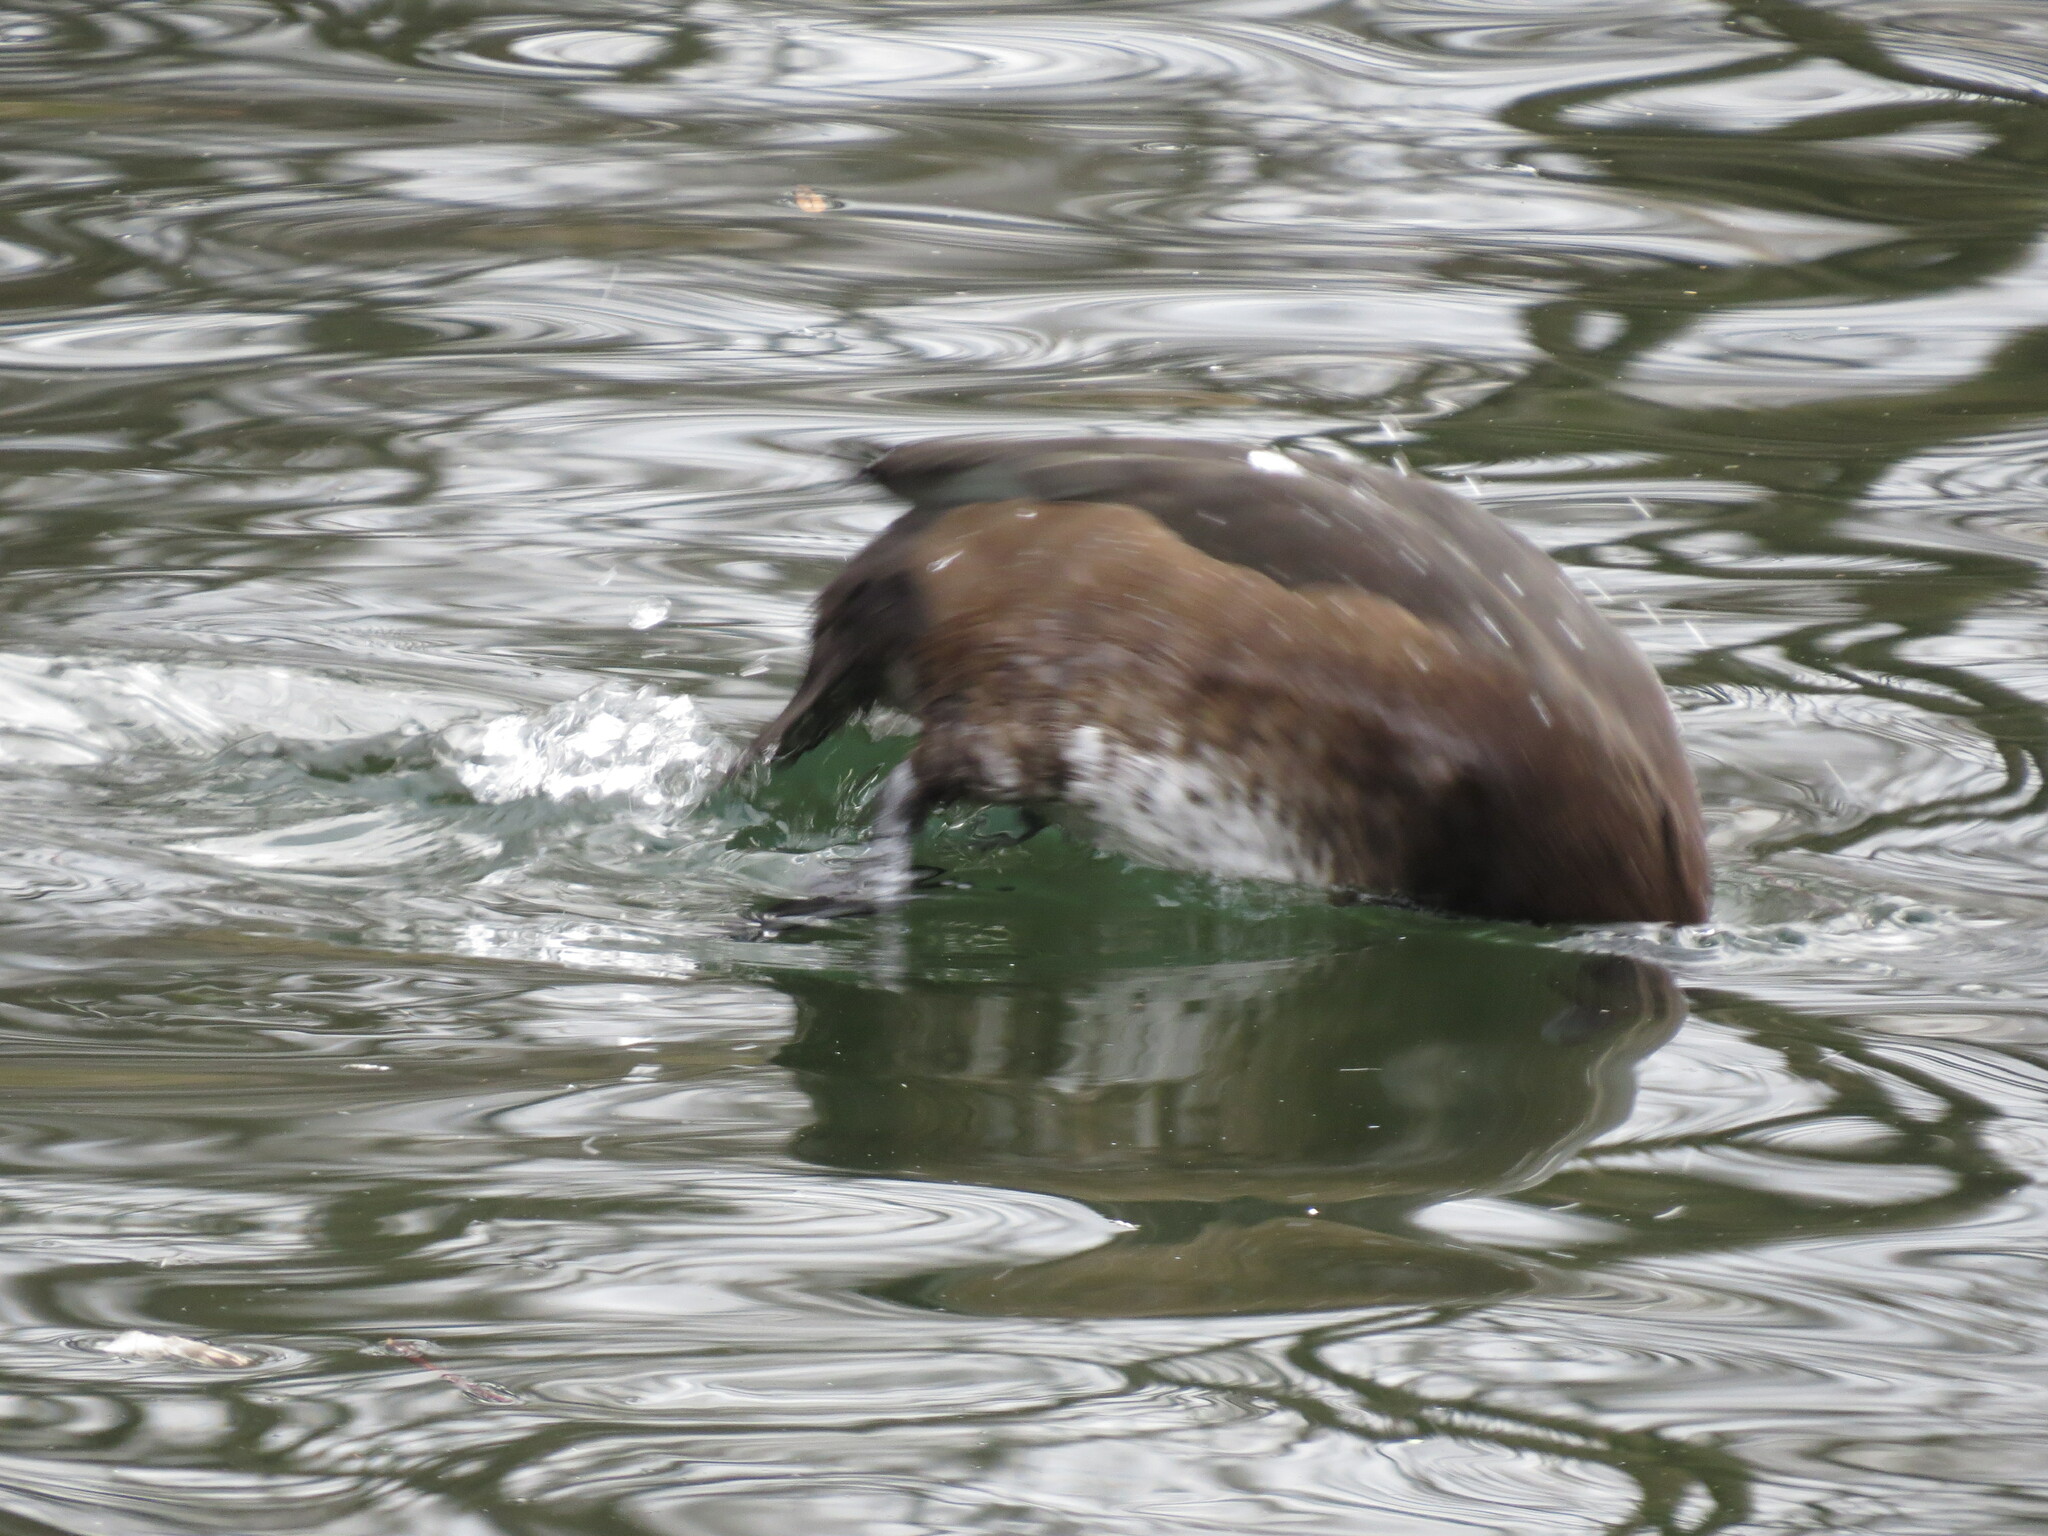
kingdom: Animalia
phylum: Chordata
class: Aves
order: Anseriformes
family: Anatidae
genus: Mareca
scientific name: Mareca penelope
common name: Eurasian wigeon
